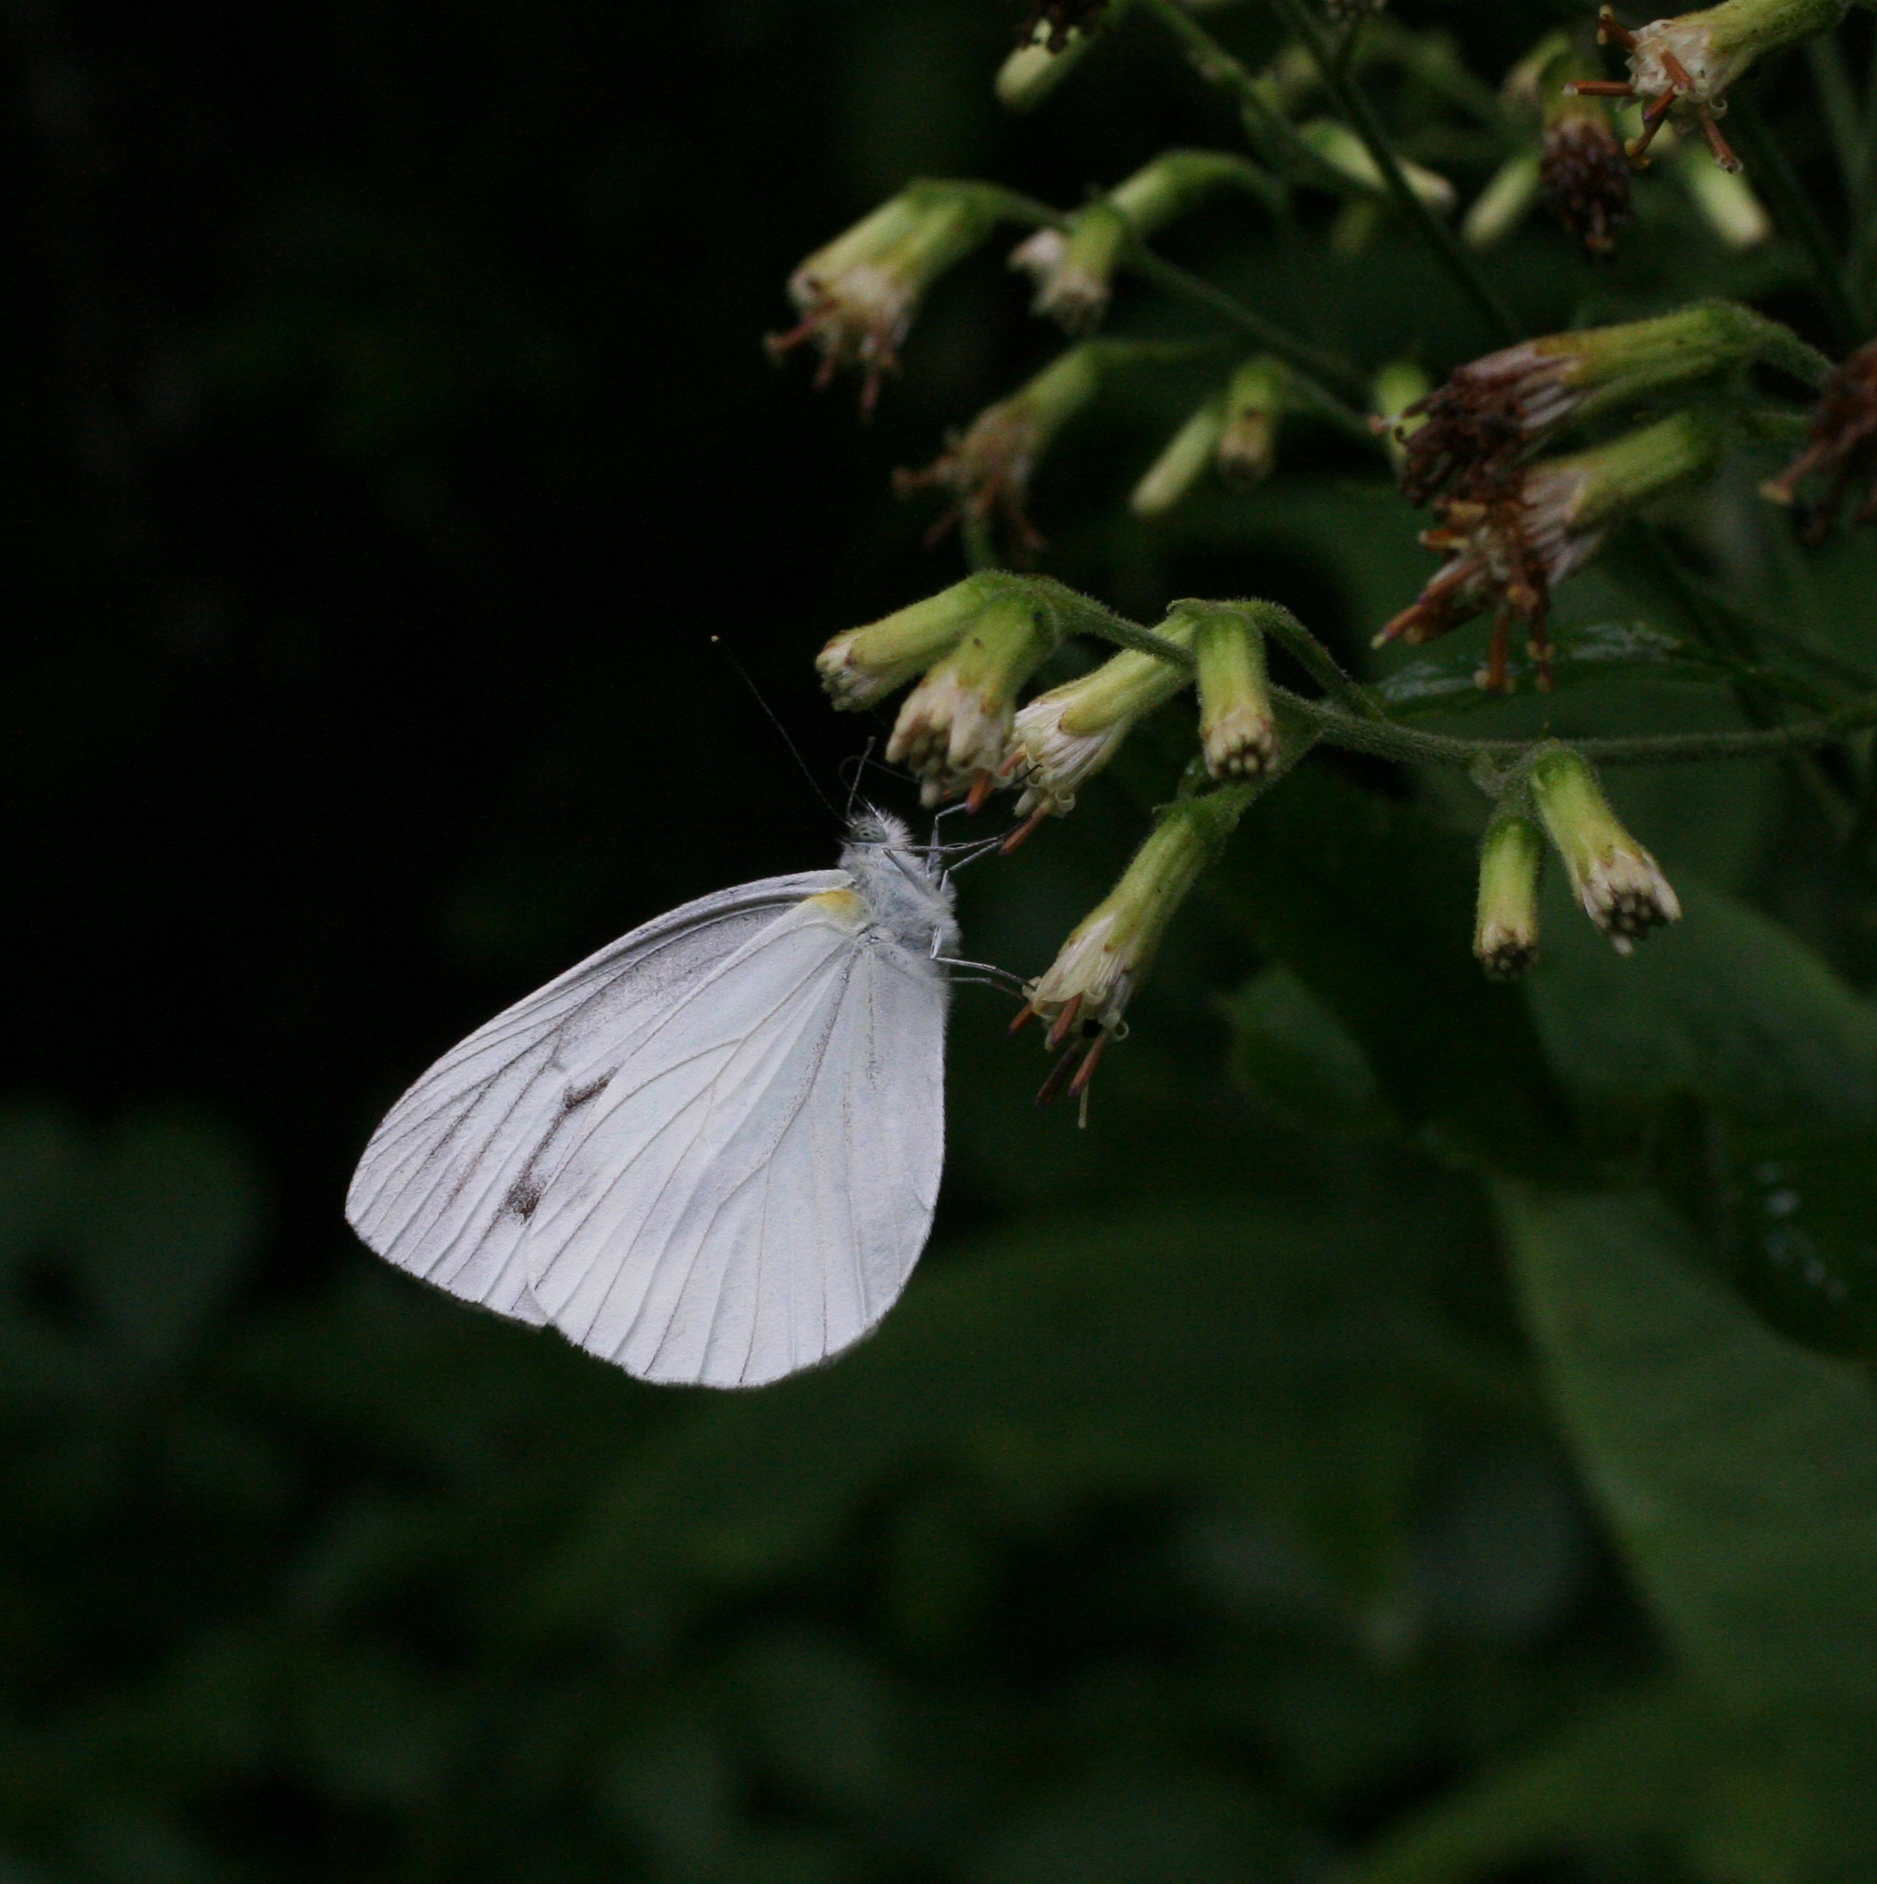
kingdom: Animalia
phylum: Arthropoda
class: Insecta
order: Lepidoptera
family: Pieridae
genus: Pieris
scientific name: Pieris melete
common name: Asian green-veined white
